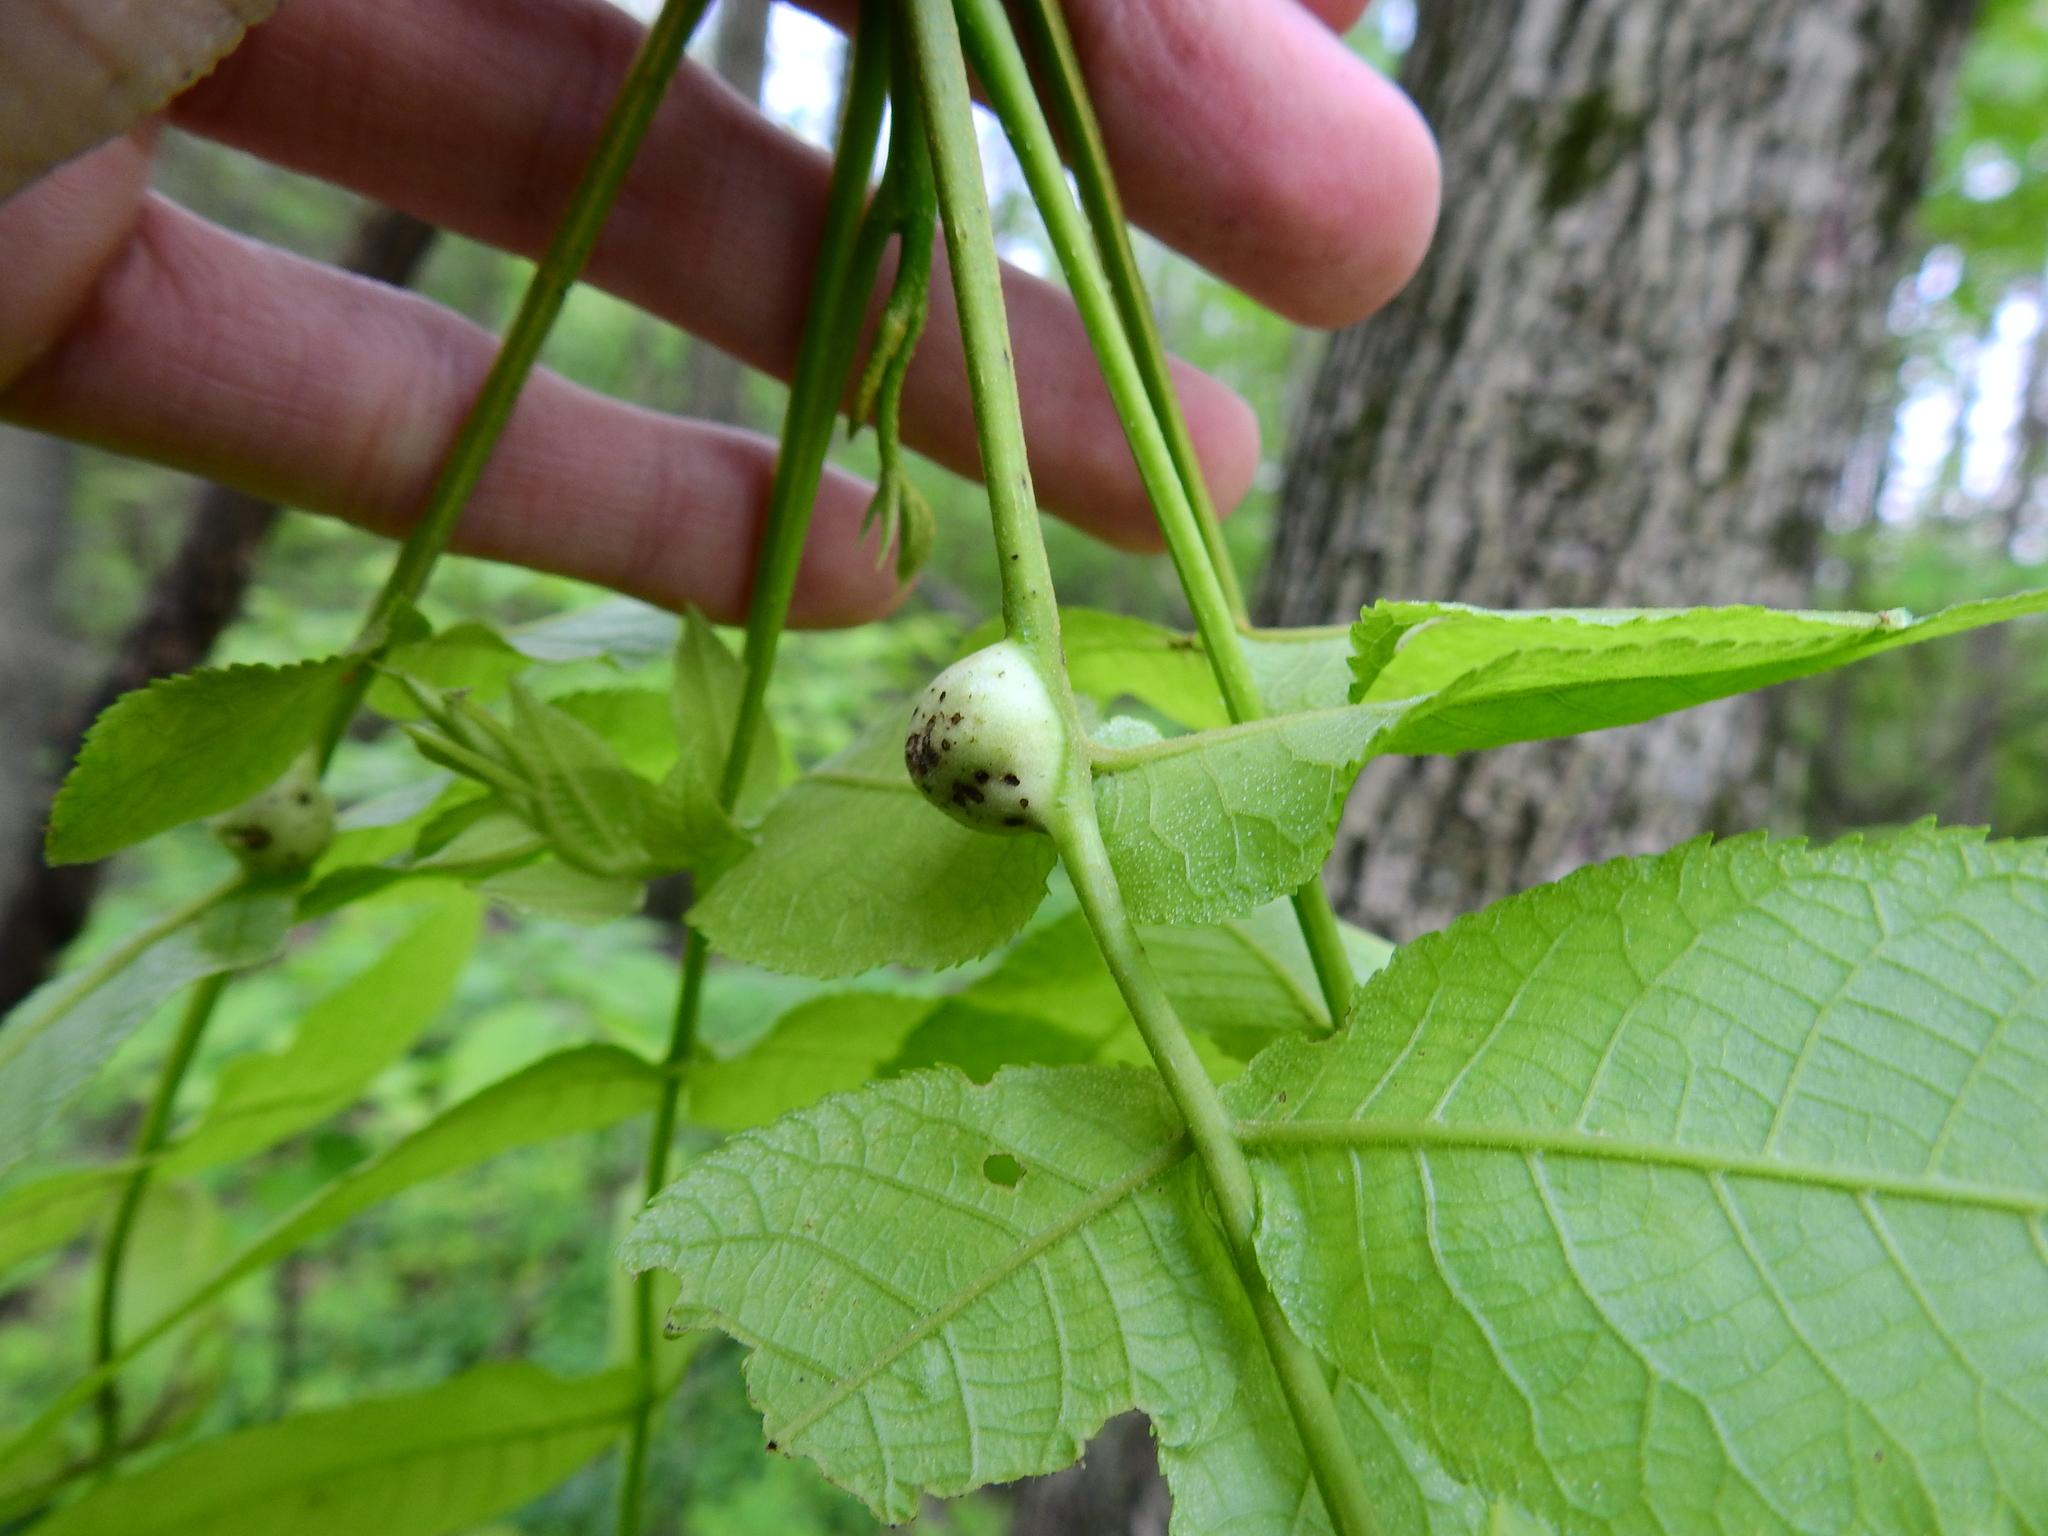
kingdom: Animalia
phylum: Arthropoda
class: Insecta
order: Hemiptera
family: Phylloxeridae
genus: Phylloxera
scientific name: Phylloxera caryaecaulis
